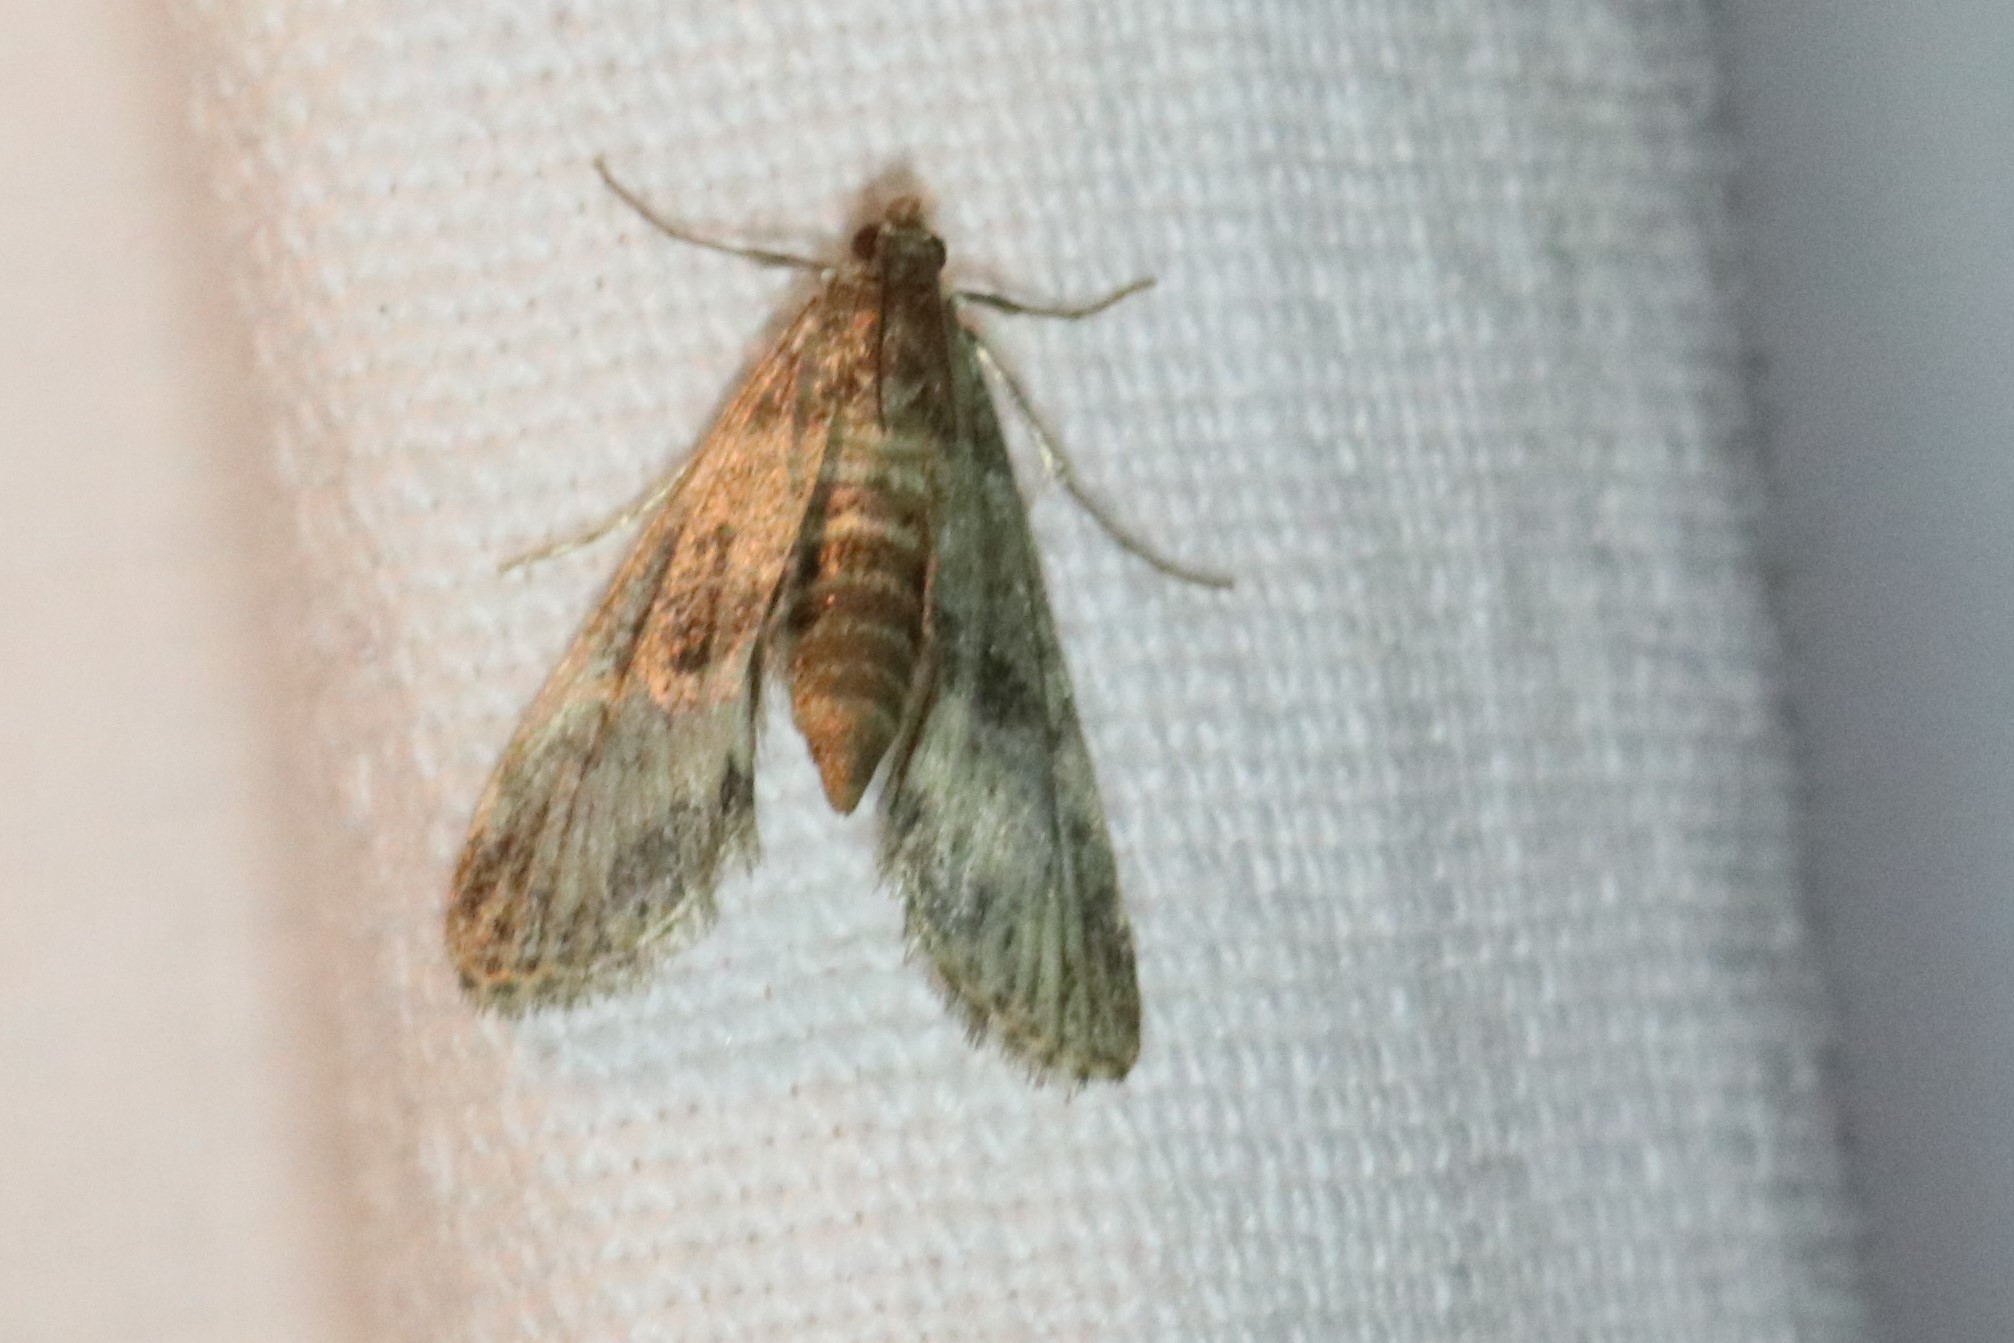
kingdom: Animalia
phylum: Arthropoda
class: Insecta
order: Lepidoptera
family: Crambidae
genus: Elophila
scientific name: Elophila obliteralis
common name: Waterlily leafcutter moth
